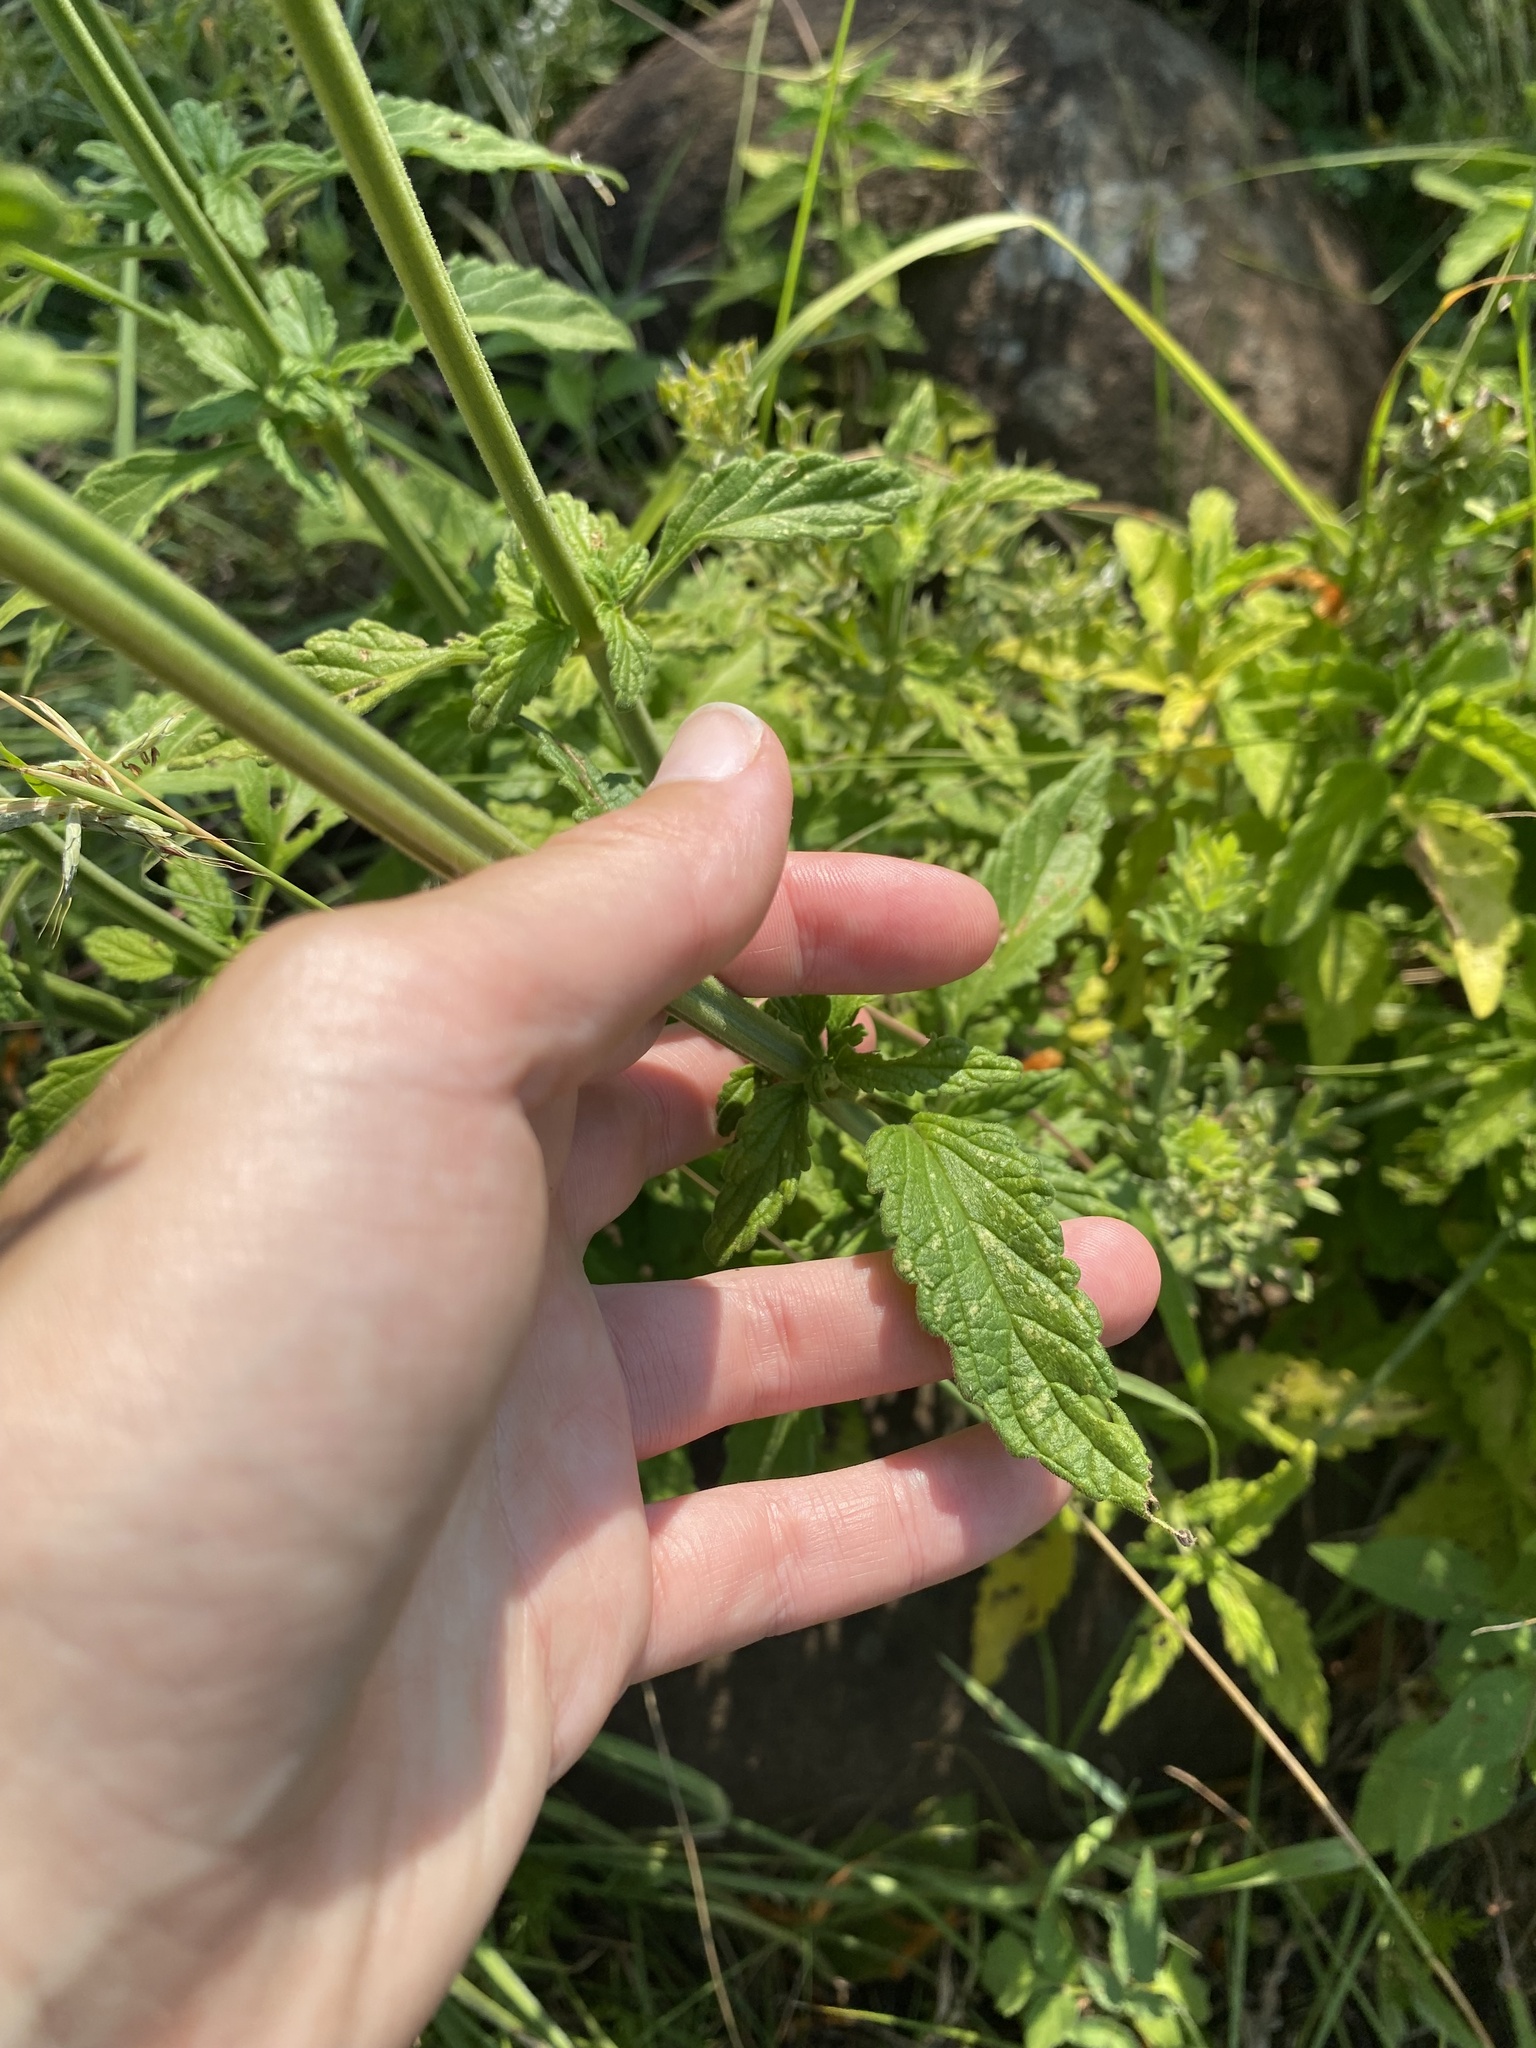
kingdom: Plantae
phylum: Tracheophyta
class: Magnoliopsida
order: Lamiales
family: Lamiaceae
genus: Leonotis
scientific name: Leonotis ocymifolia
